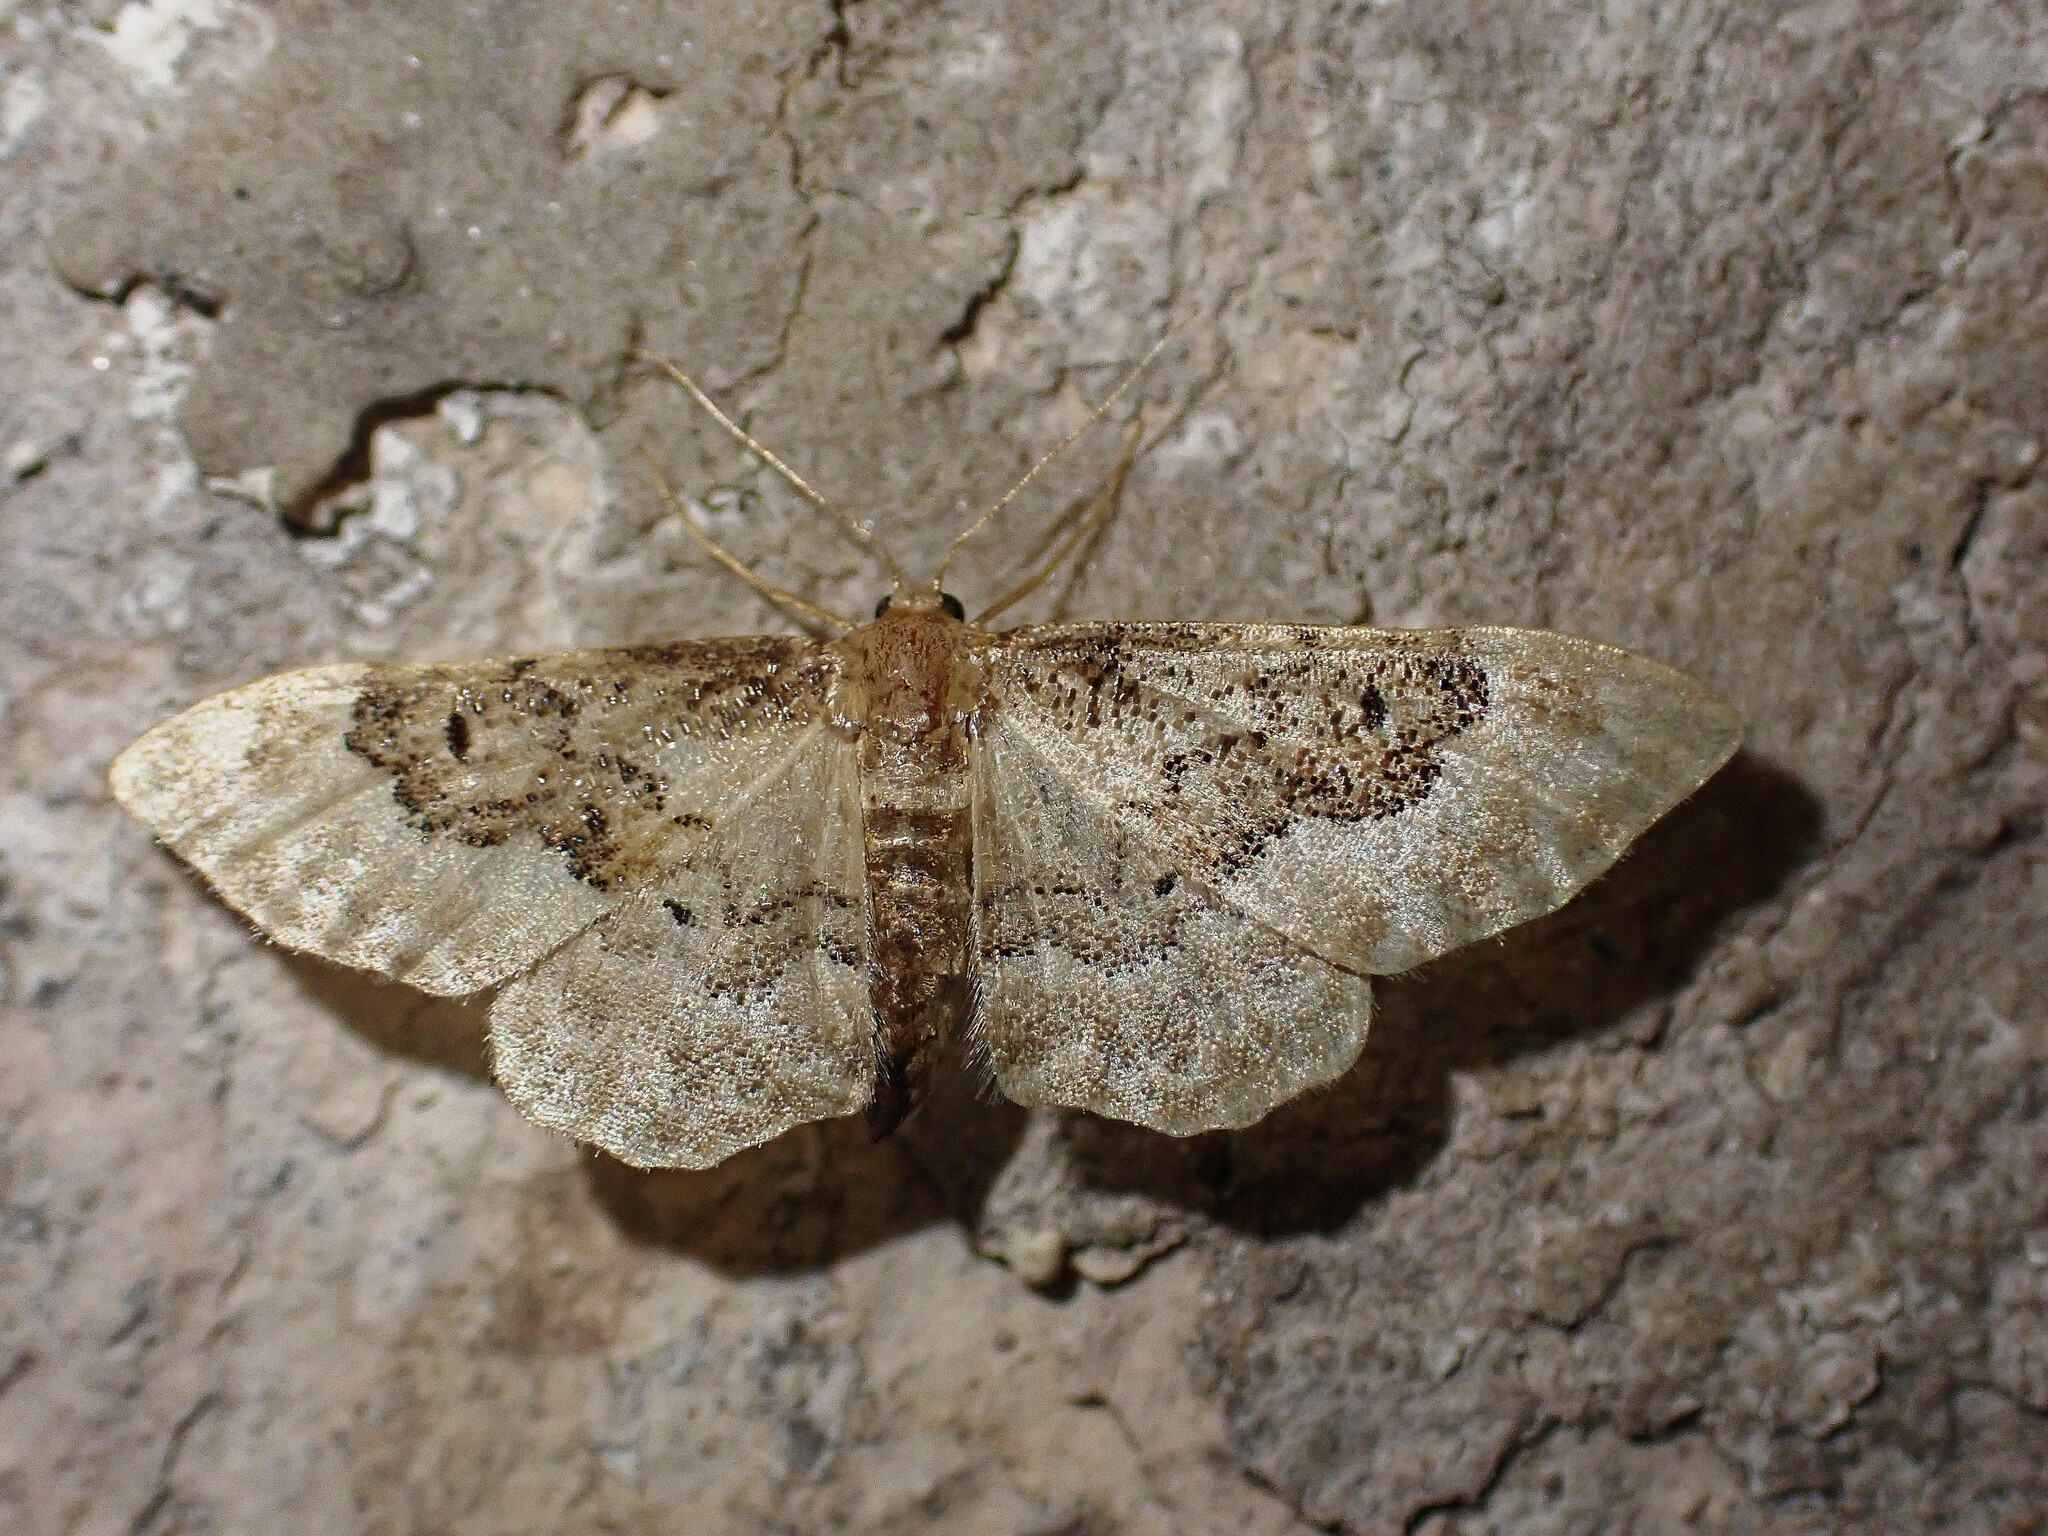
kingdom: Animalia
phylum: Arthropoda
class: Insecta
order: Lepidoptera
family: Geometridae
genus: Idaea
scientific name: Idaea rusticata
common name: Least carpet
